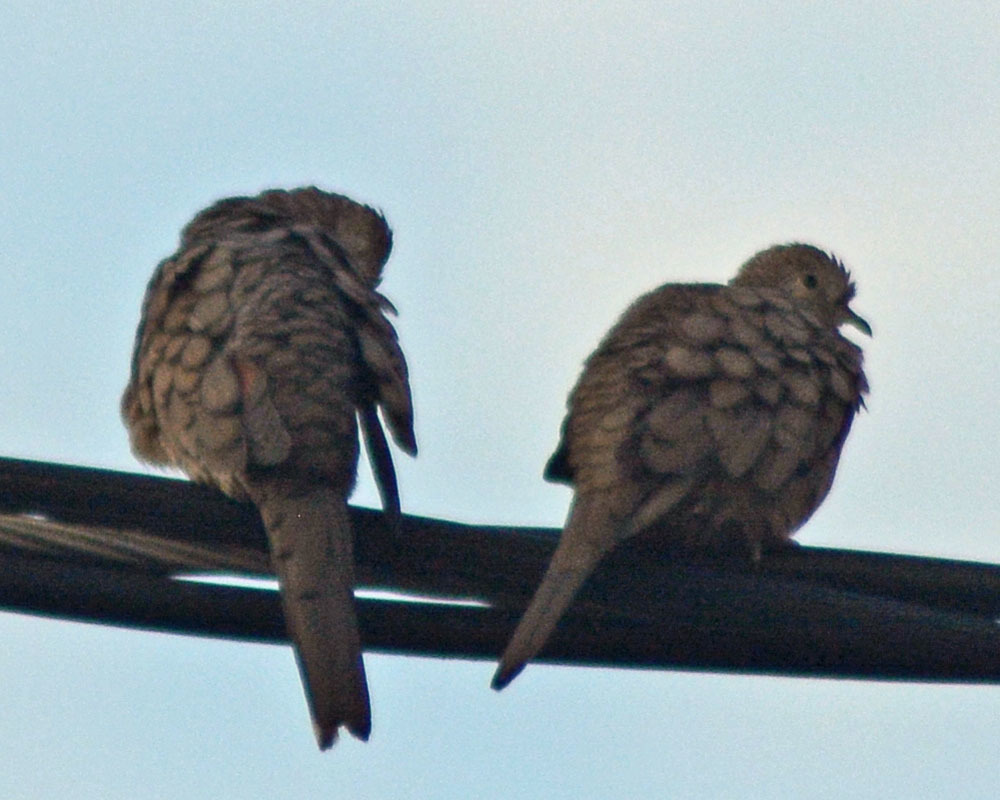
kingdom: Animalia
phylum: Chordata
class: Aves
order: Columbiformes
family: Columbidae
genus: Columbina
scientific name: Columbina inca
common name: Inca dove
